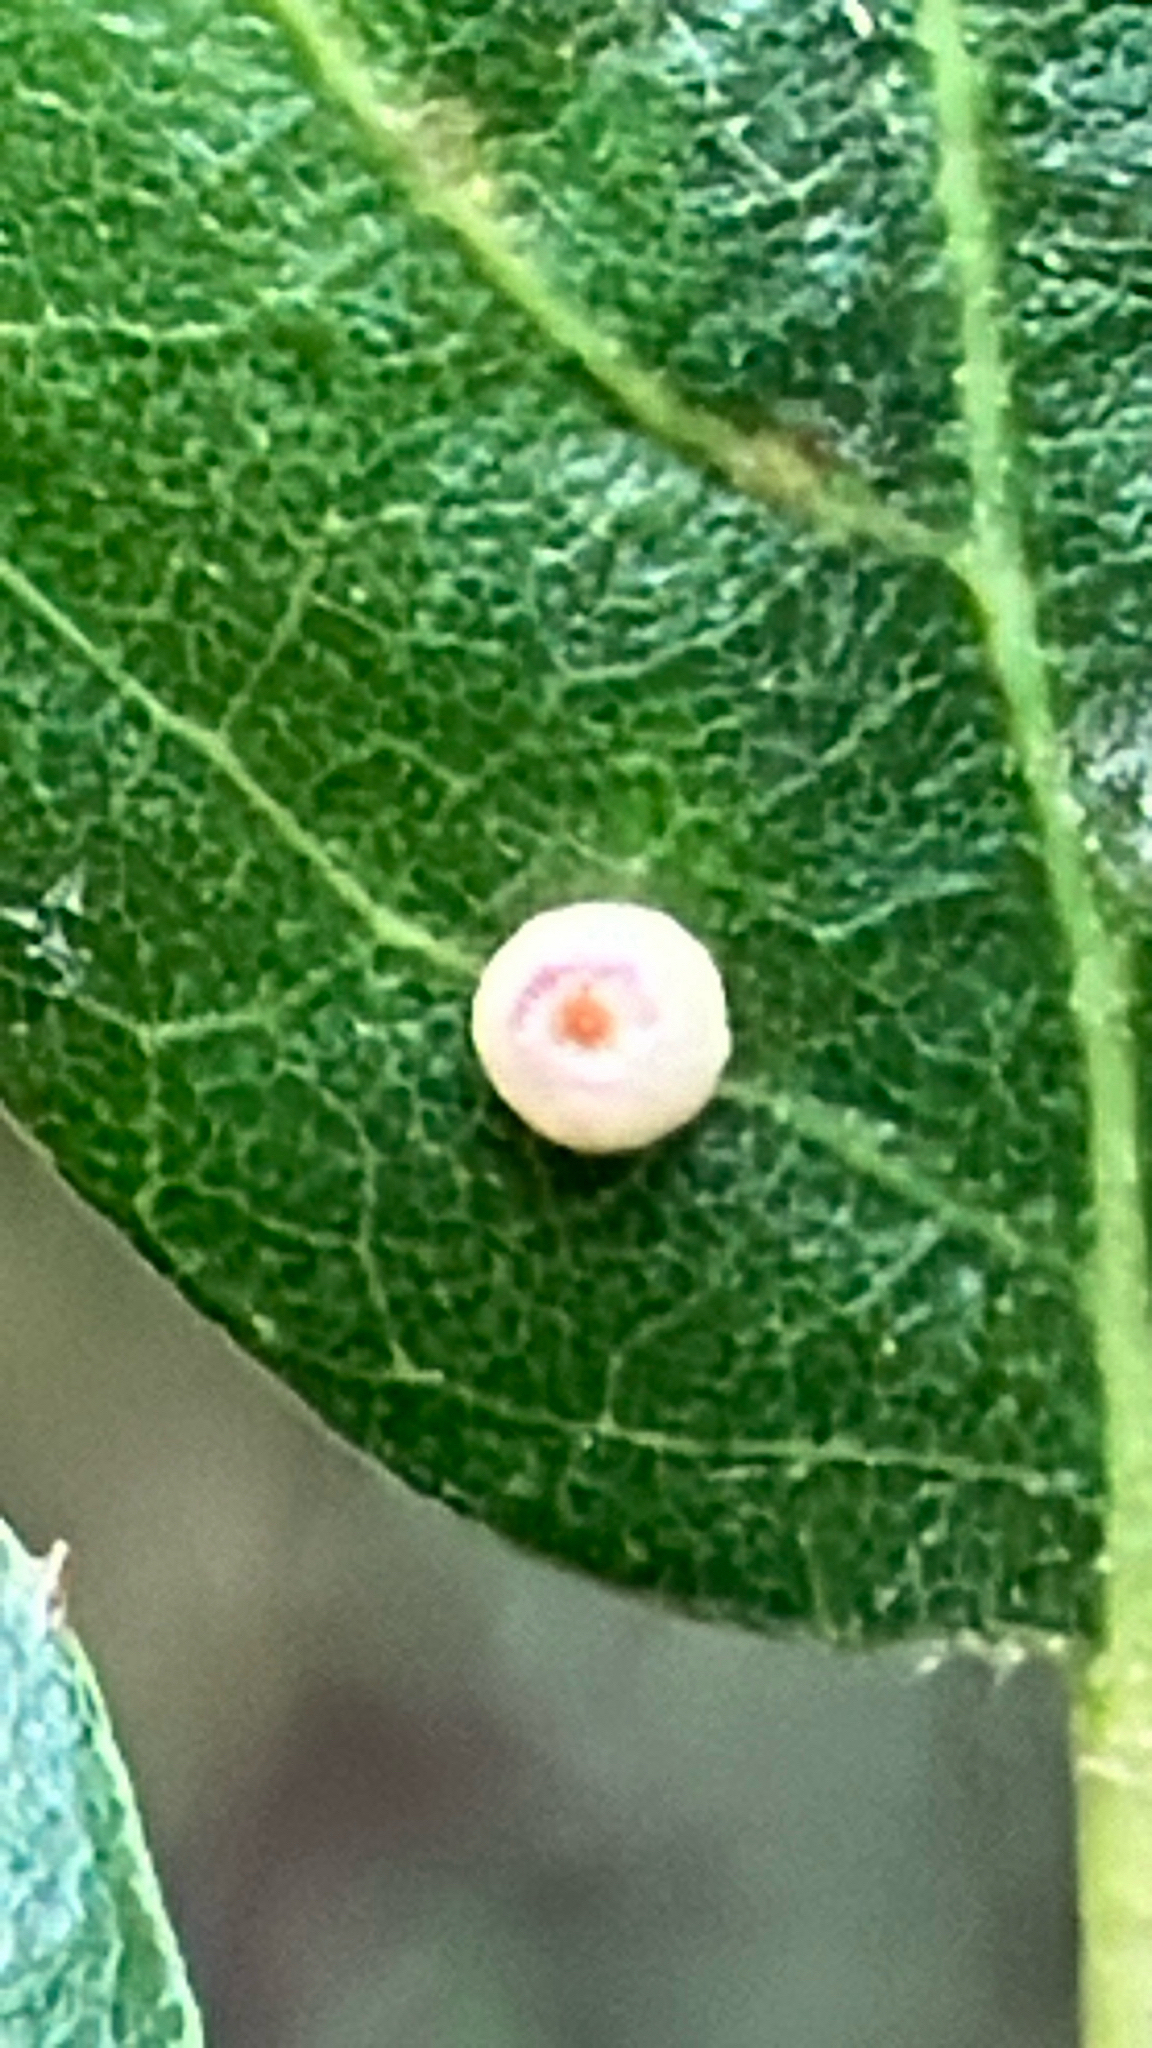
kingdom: Animalia
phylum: Arthropoda
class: Insecta
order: Hymenoptera
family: Cynipidae
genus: Dryocosmus
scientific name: Dryocosmus
